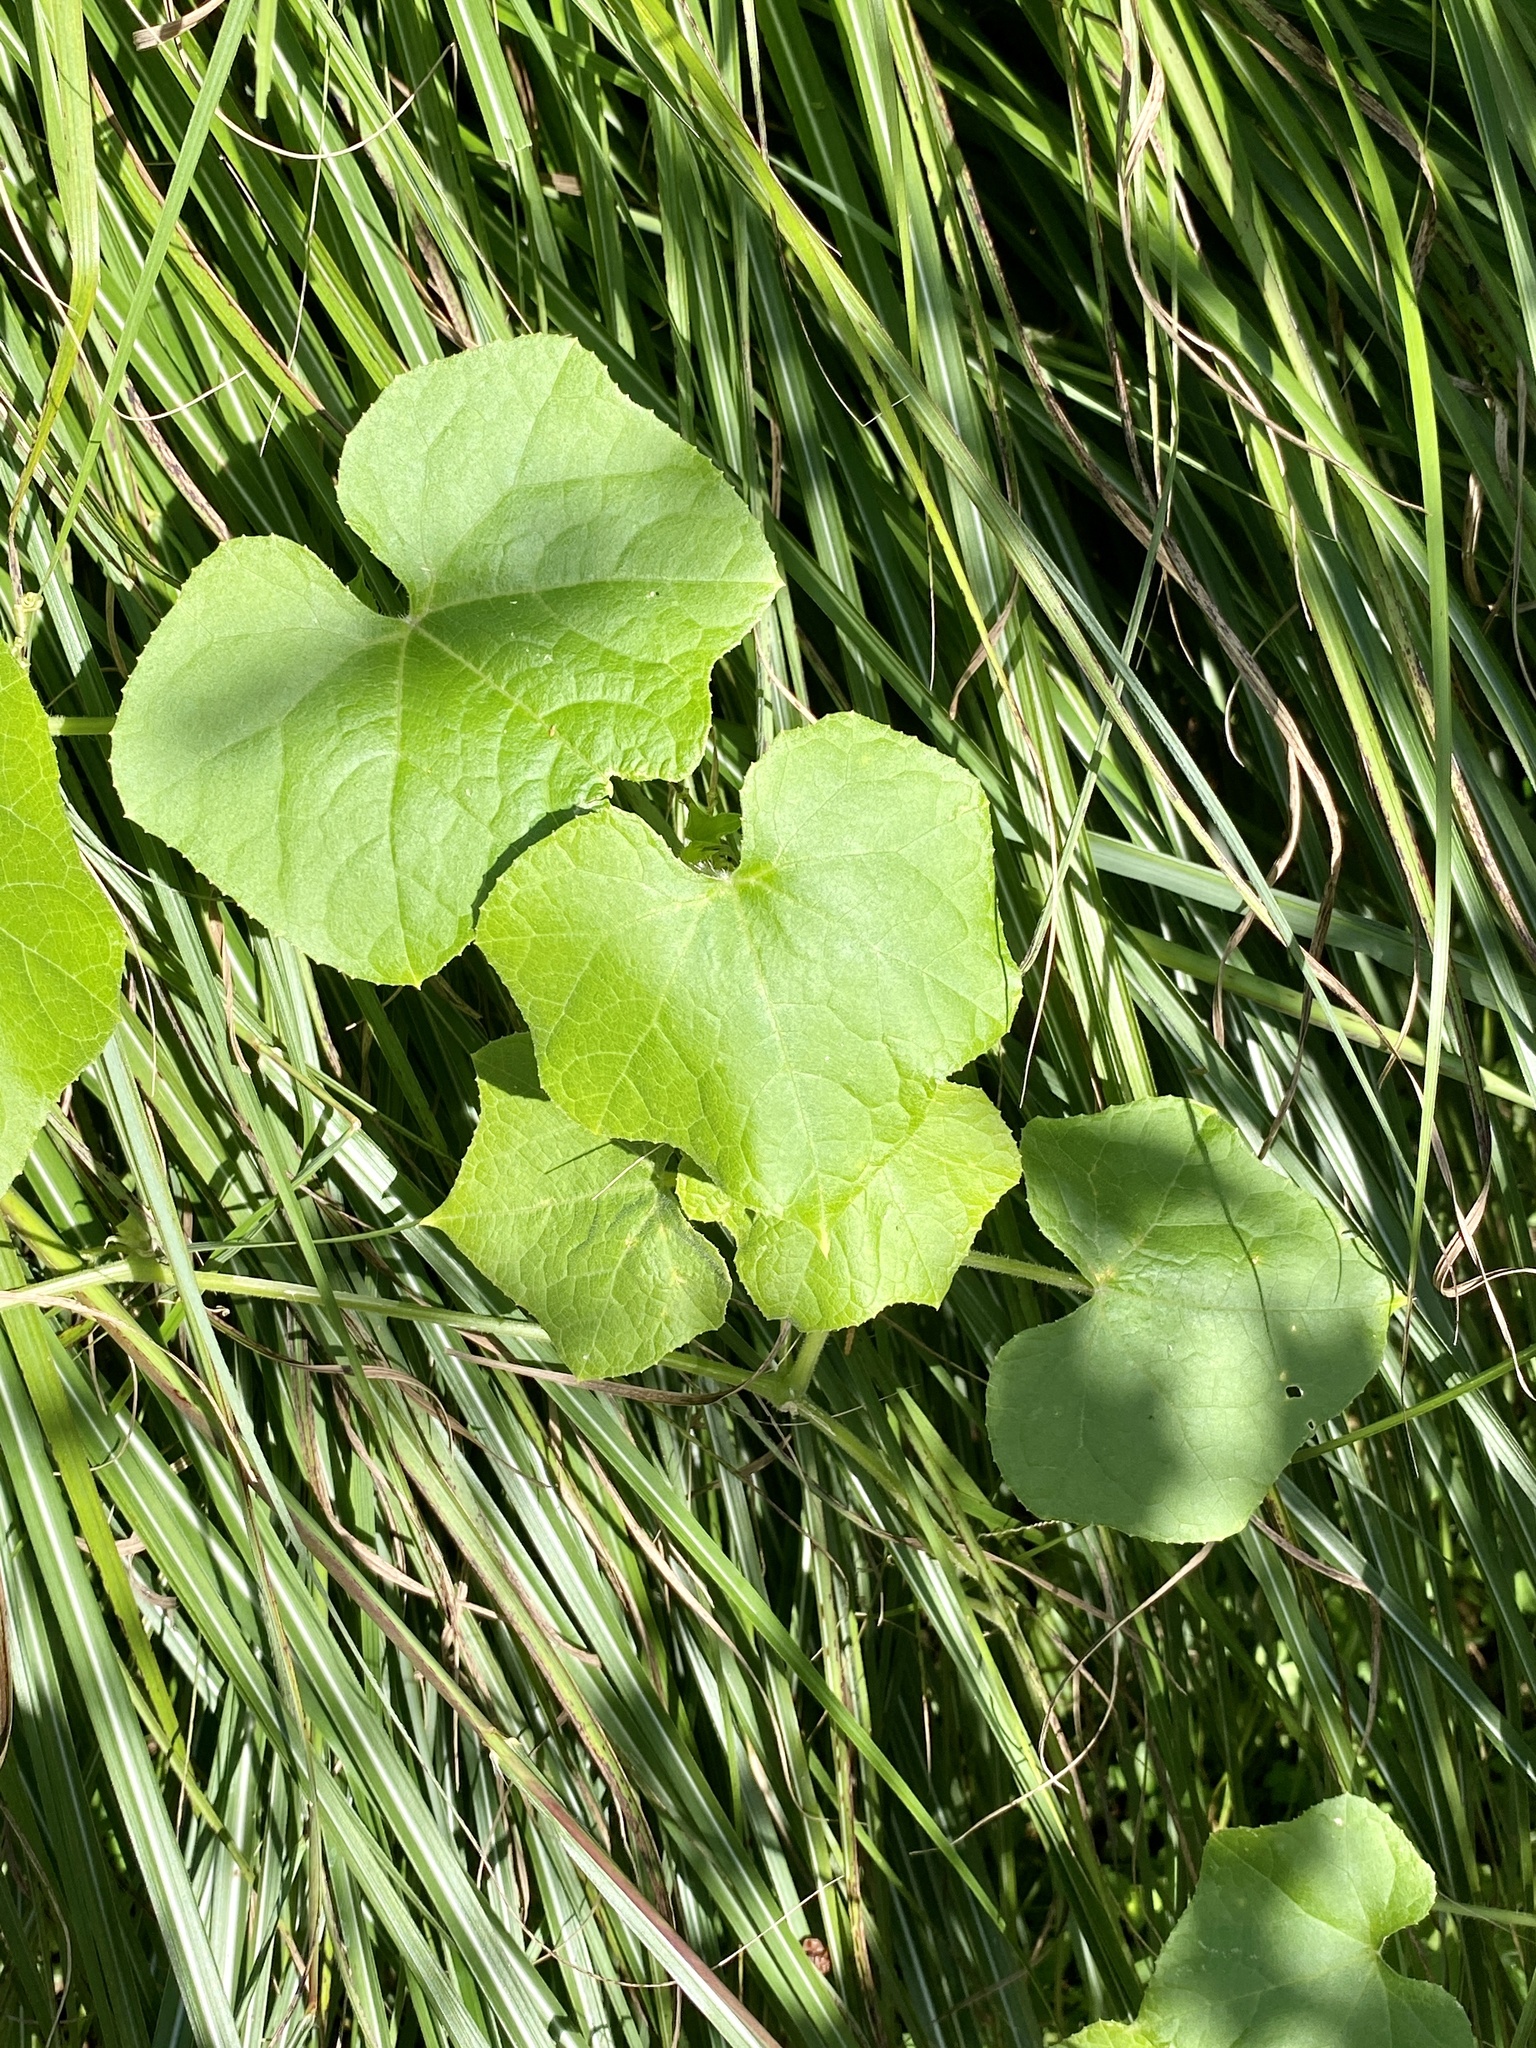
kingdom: Plantae
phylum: Tracheophyta
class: Magnoliopsida
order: Cucurbitales
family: Cucurbitaceae
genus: Sicyos
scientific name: Sicyos angulatus
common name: Angled burr cucumber
